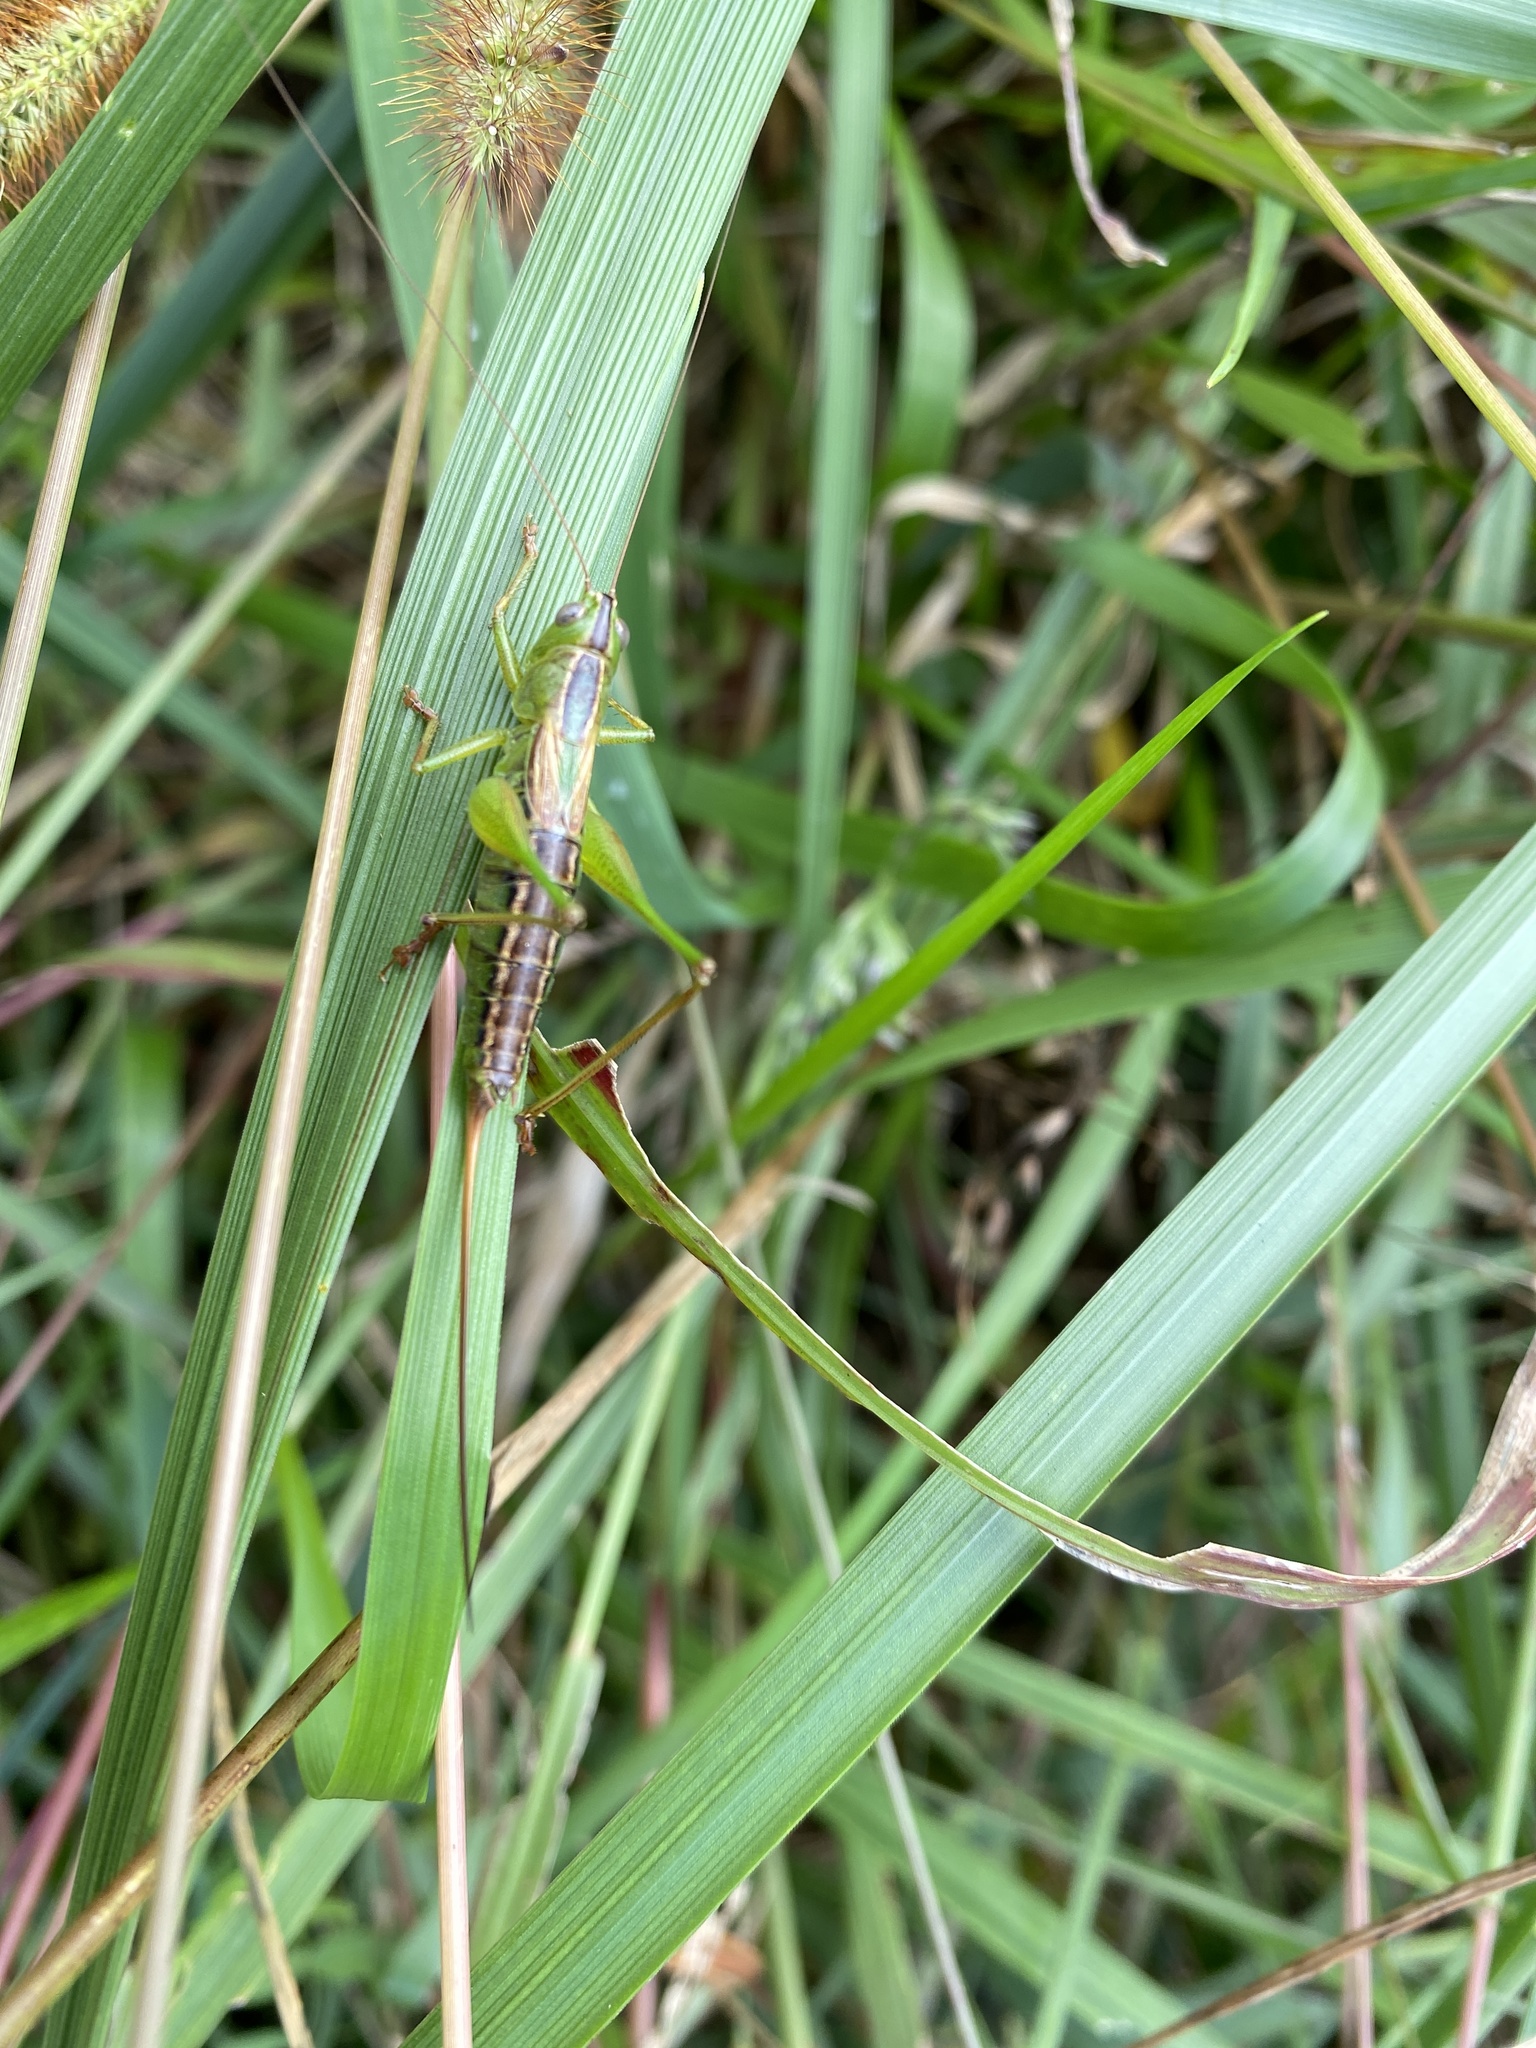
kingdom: Animalia
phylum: Arthropoda
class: Insecta
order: Orthoptera
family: Tettigoniidae
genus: Conocephalus
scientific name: Conocephalus strictus
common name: Straight-lanced katydid
